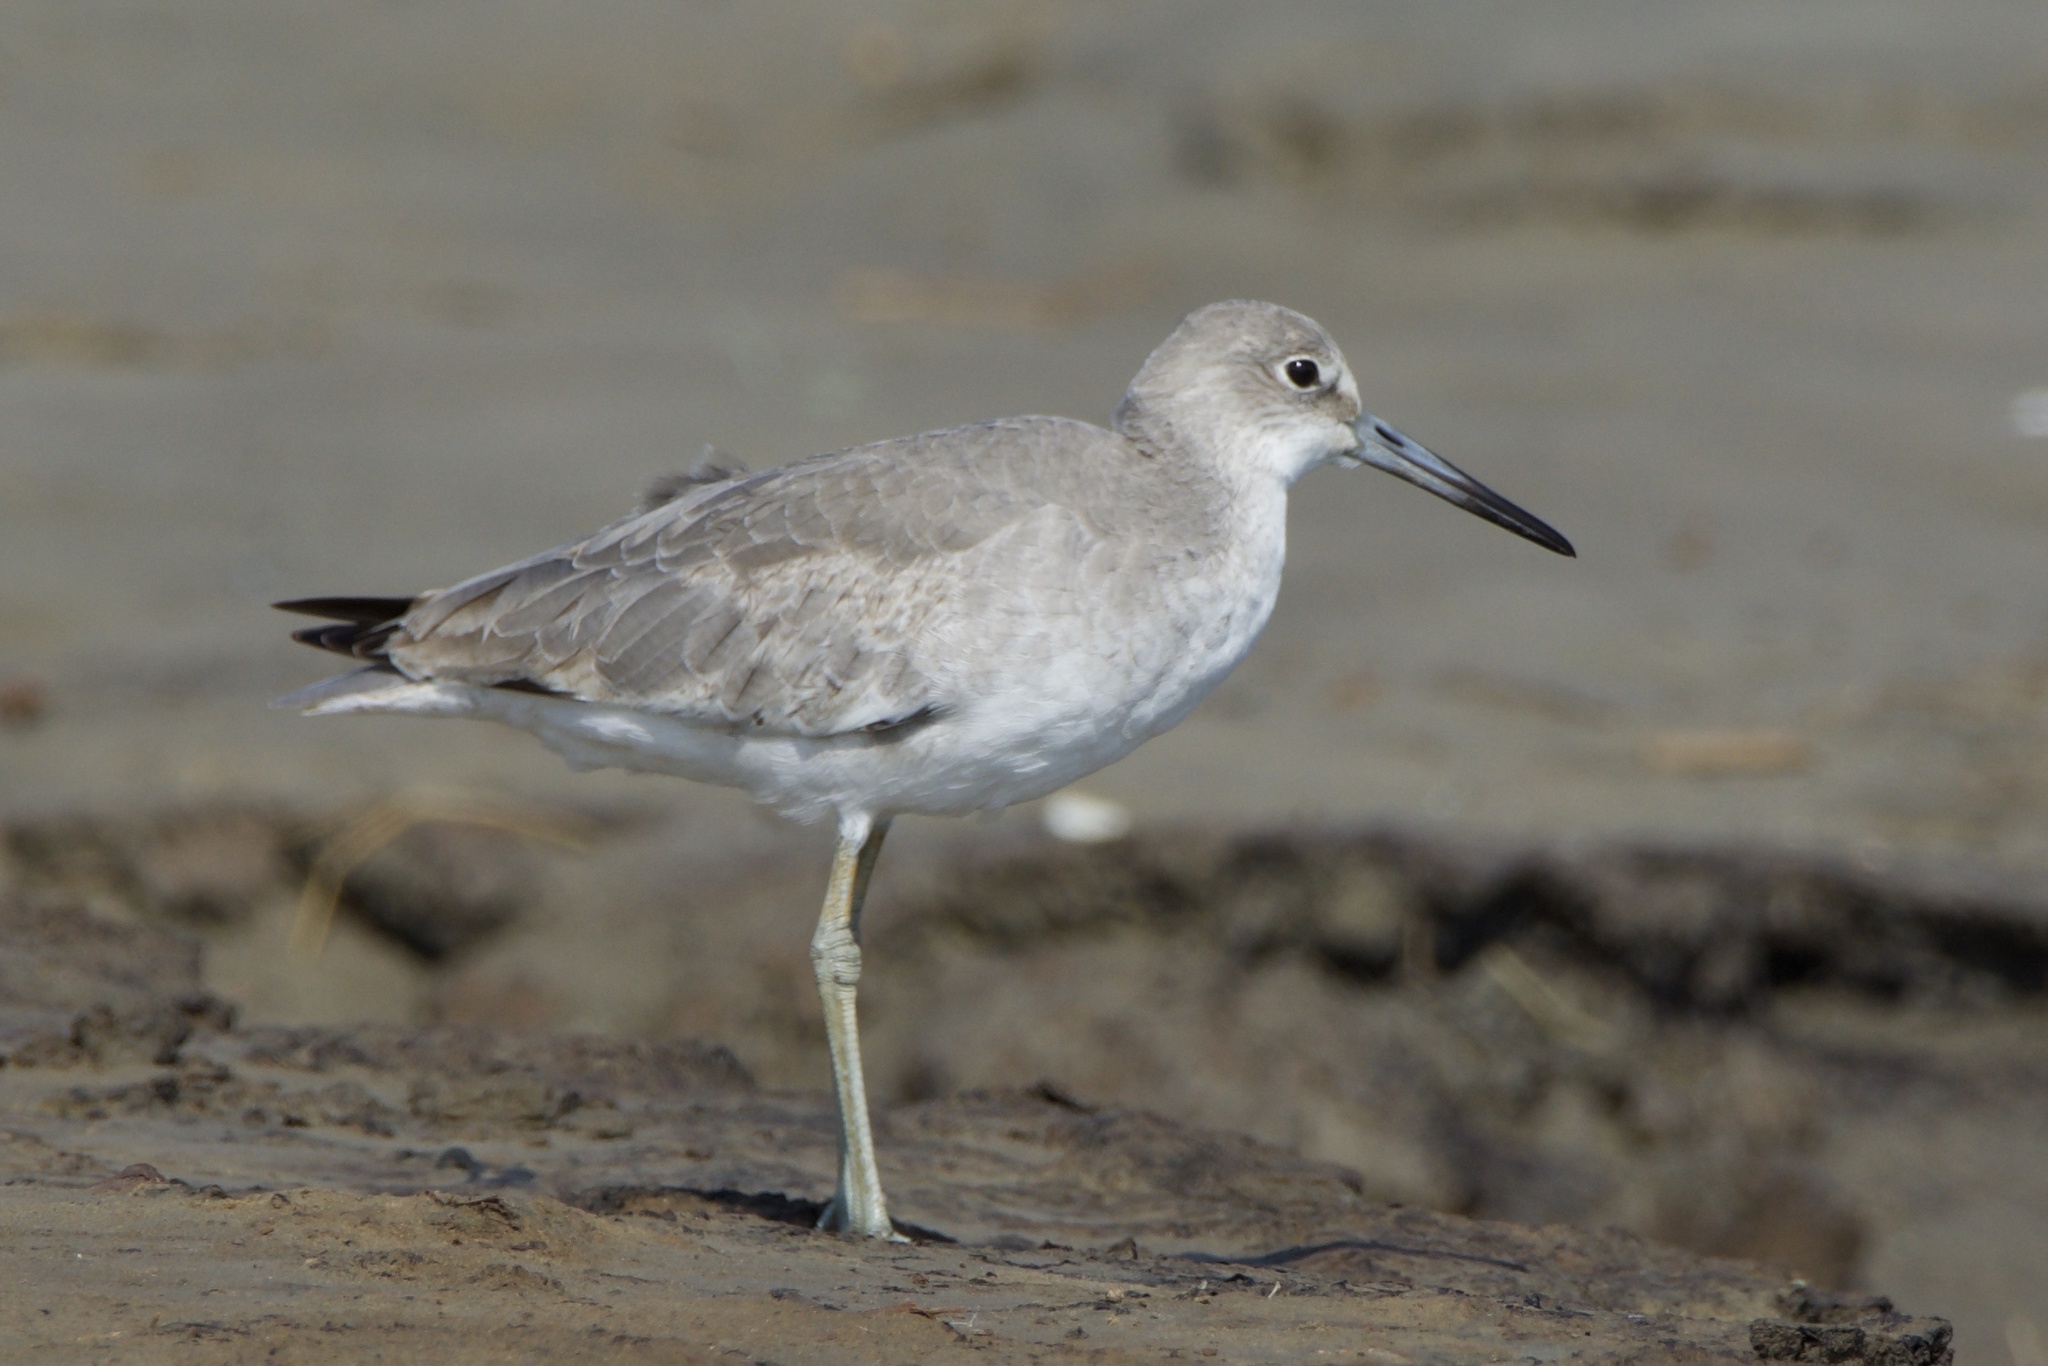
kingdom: Animalia
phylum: Chordata
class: Aves
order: Charadriiformes
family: Scolopacidae
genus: Tringa
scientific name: Tringa semipalmata
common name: Willet
